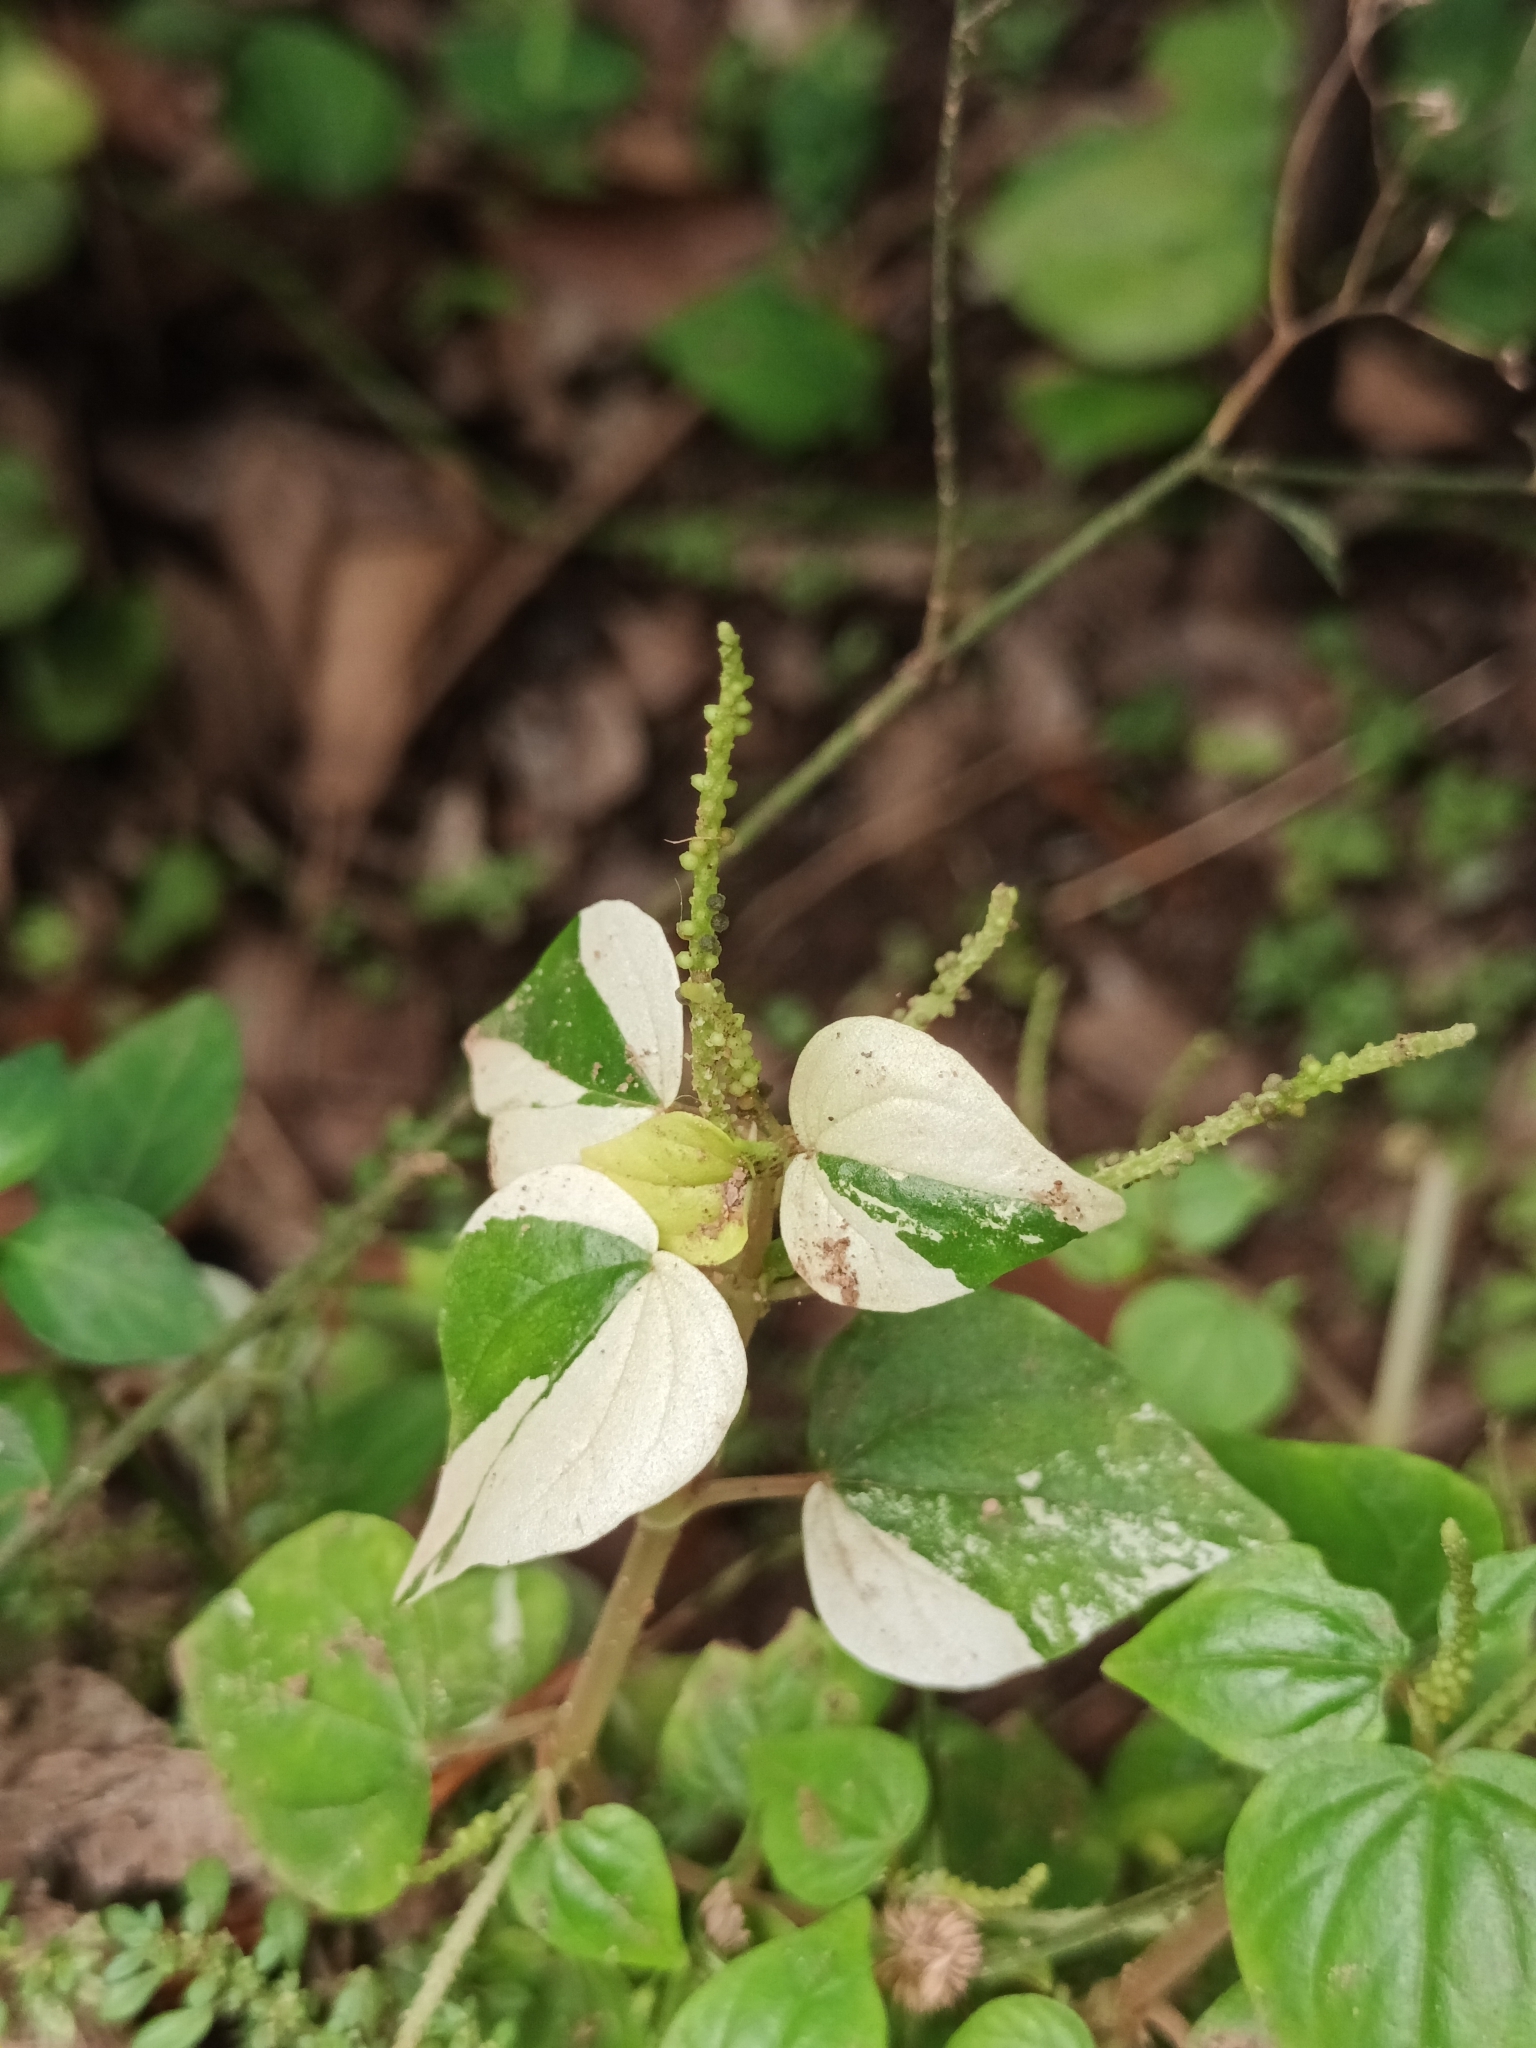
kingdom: Plantae
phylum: Tracheophyta
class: Magnoliopsida
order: Piperales
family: Piperaceae
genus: Peperomia
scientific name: Peperomia pellucida
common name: Man to man
